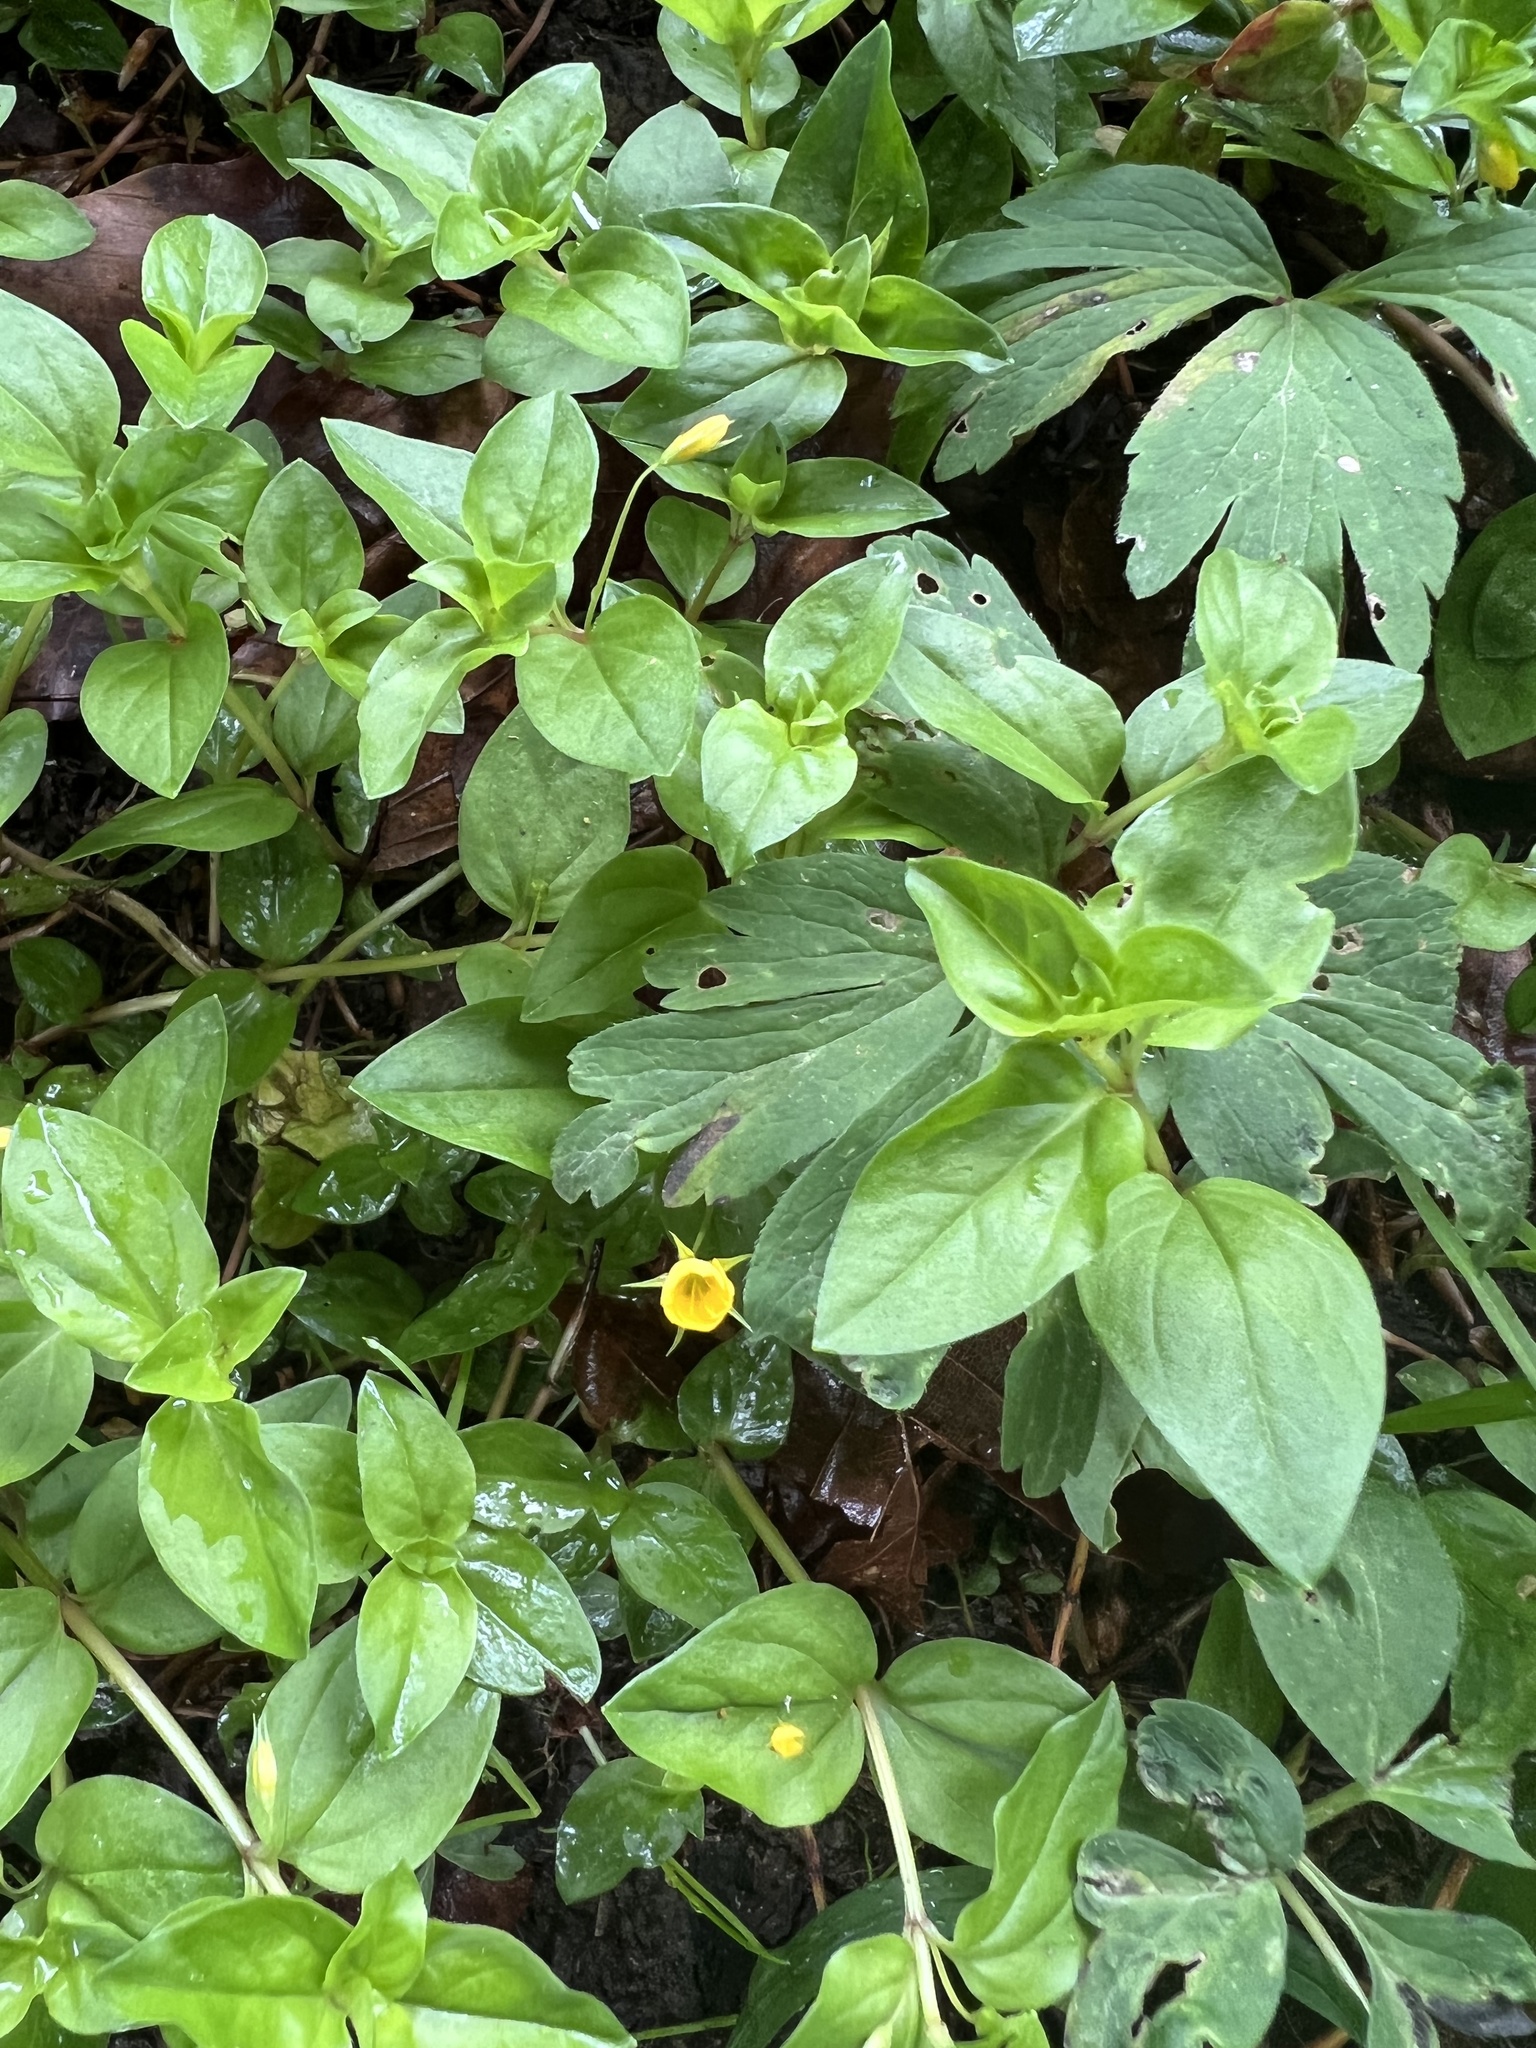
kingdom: Plantae
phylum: Tracheophyta
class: Magnoliopsida
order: Ericales
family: Primulaceae
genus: Lysimachia
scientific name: Lysimachia nemorum
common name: Yellow pimpernel
